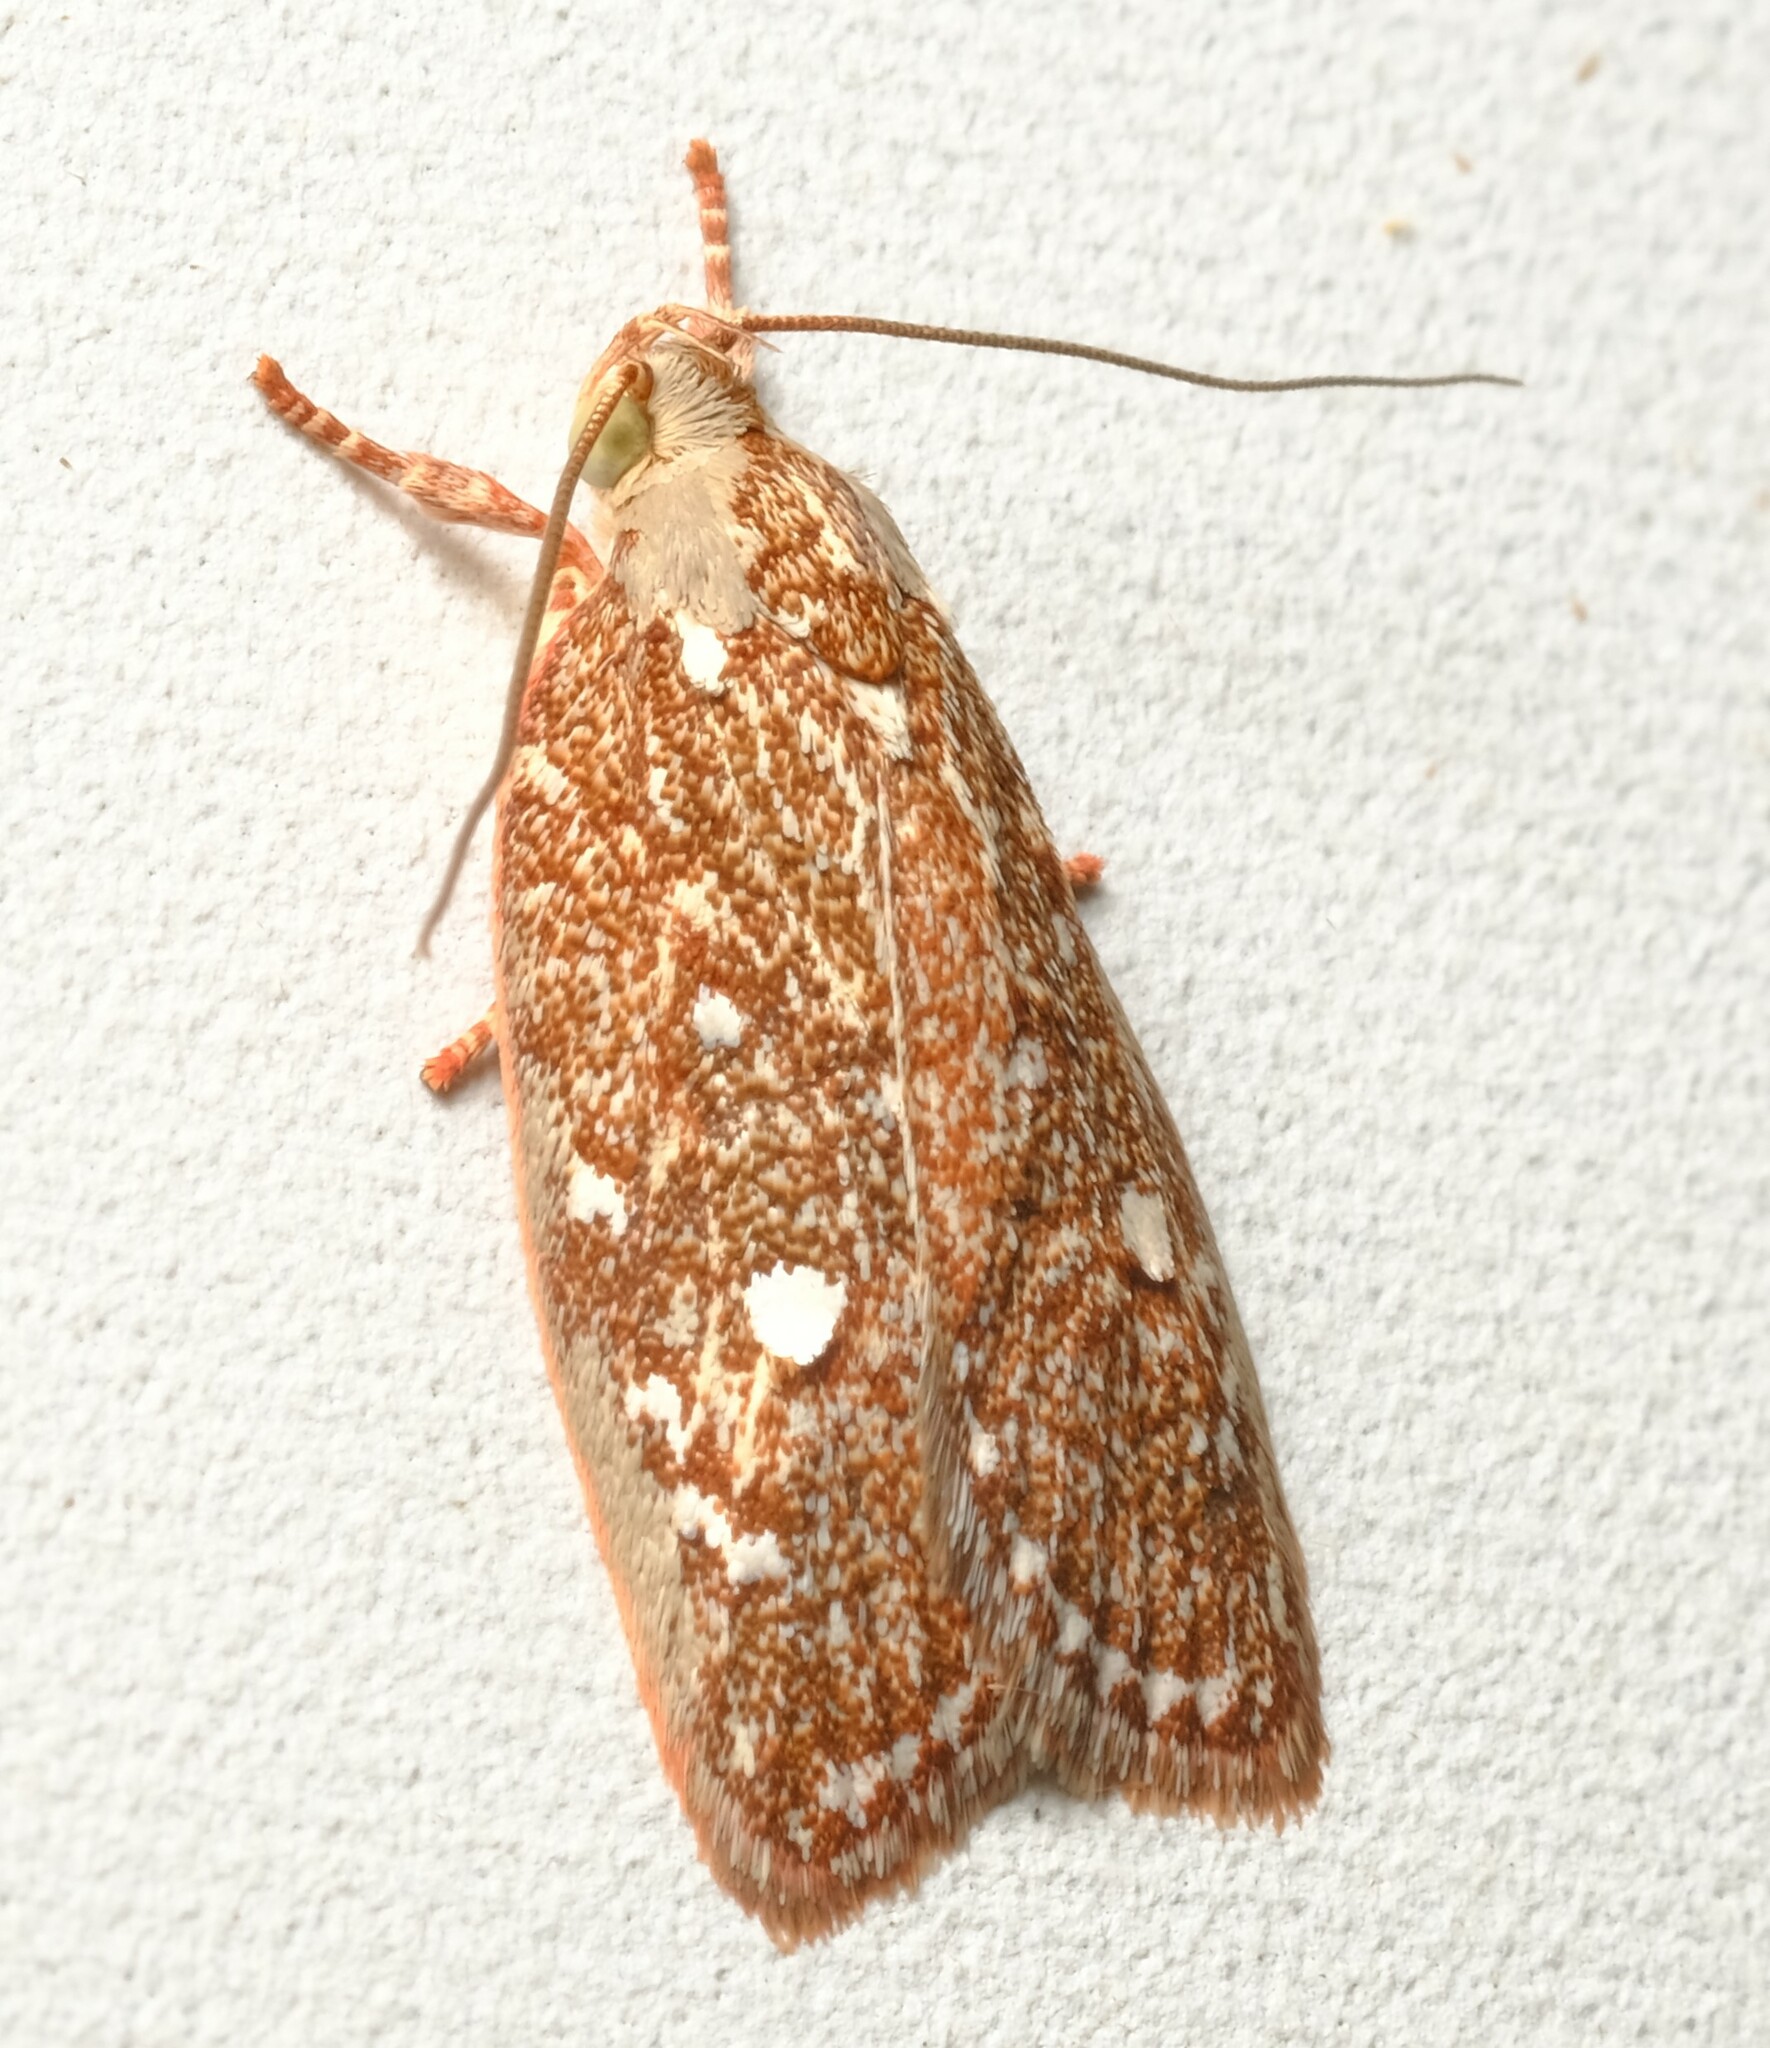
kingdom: Animalia
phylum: Arthropoda
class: Insecta
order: Lepidoptera
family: Oecophoridae
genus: Syringoseca
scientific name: Syringoseca rhodoxantha
